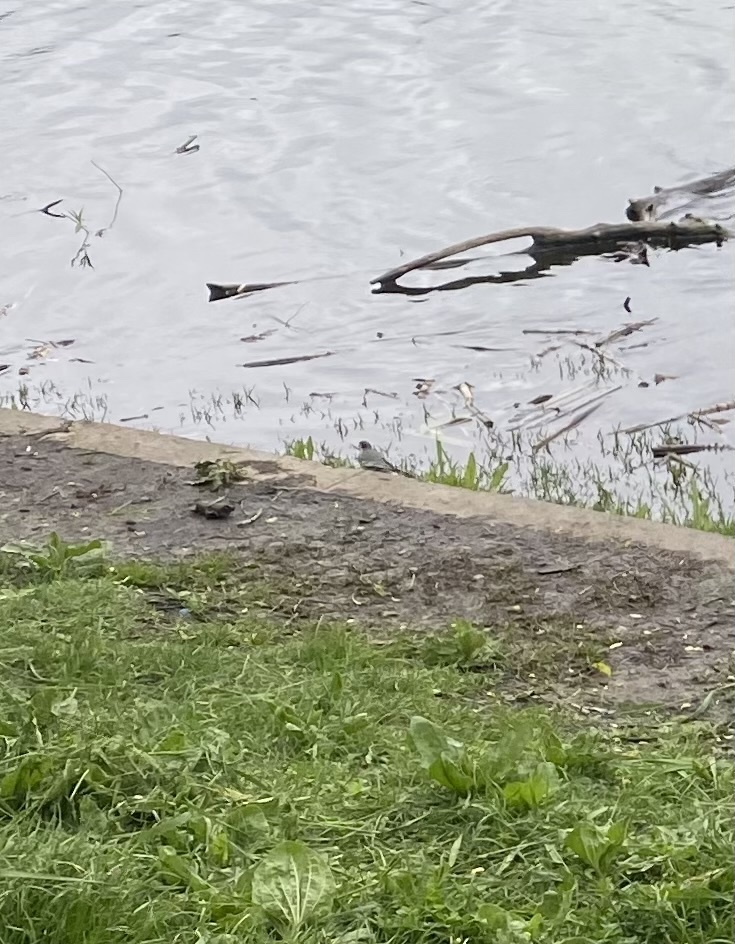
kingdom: Animalia
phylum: Chordata
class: Aves
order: Passeriformes
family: Motacillidae
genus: Motacilla
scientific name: Motacilla alba
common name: White wagtail
